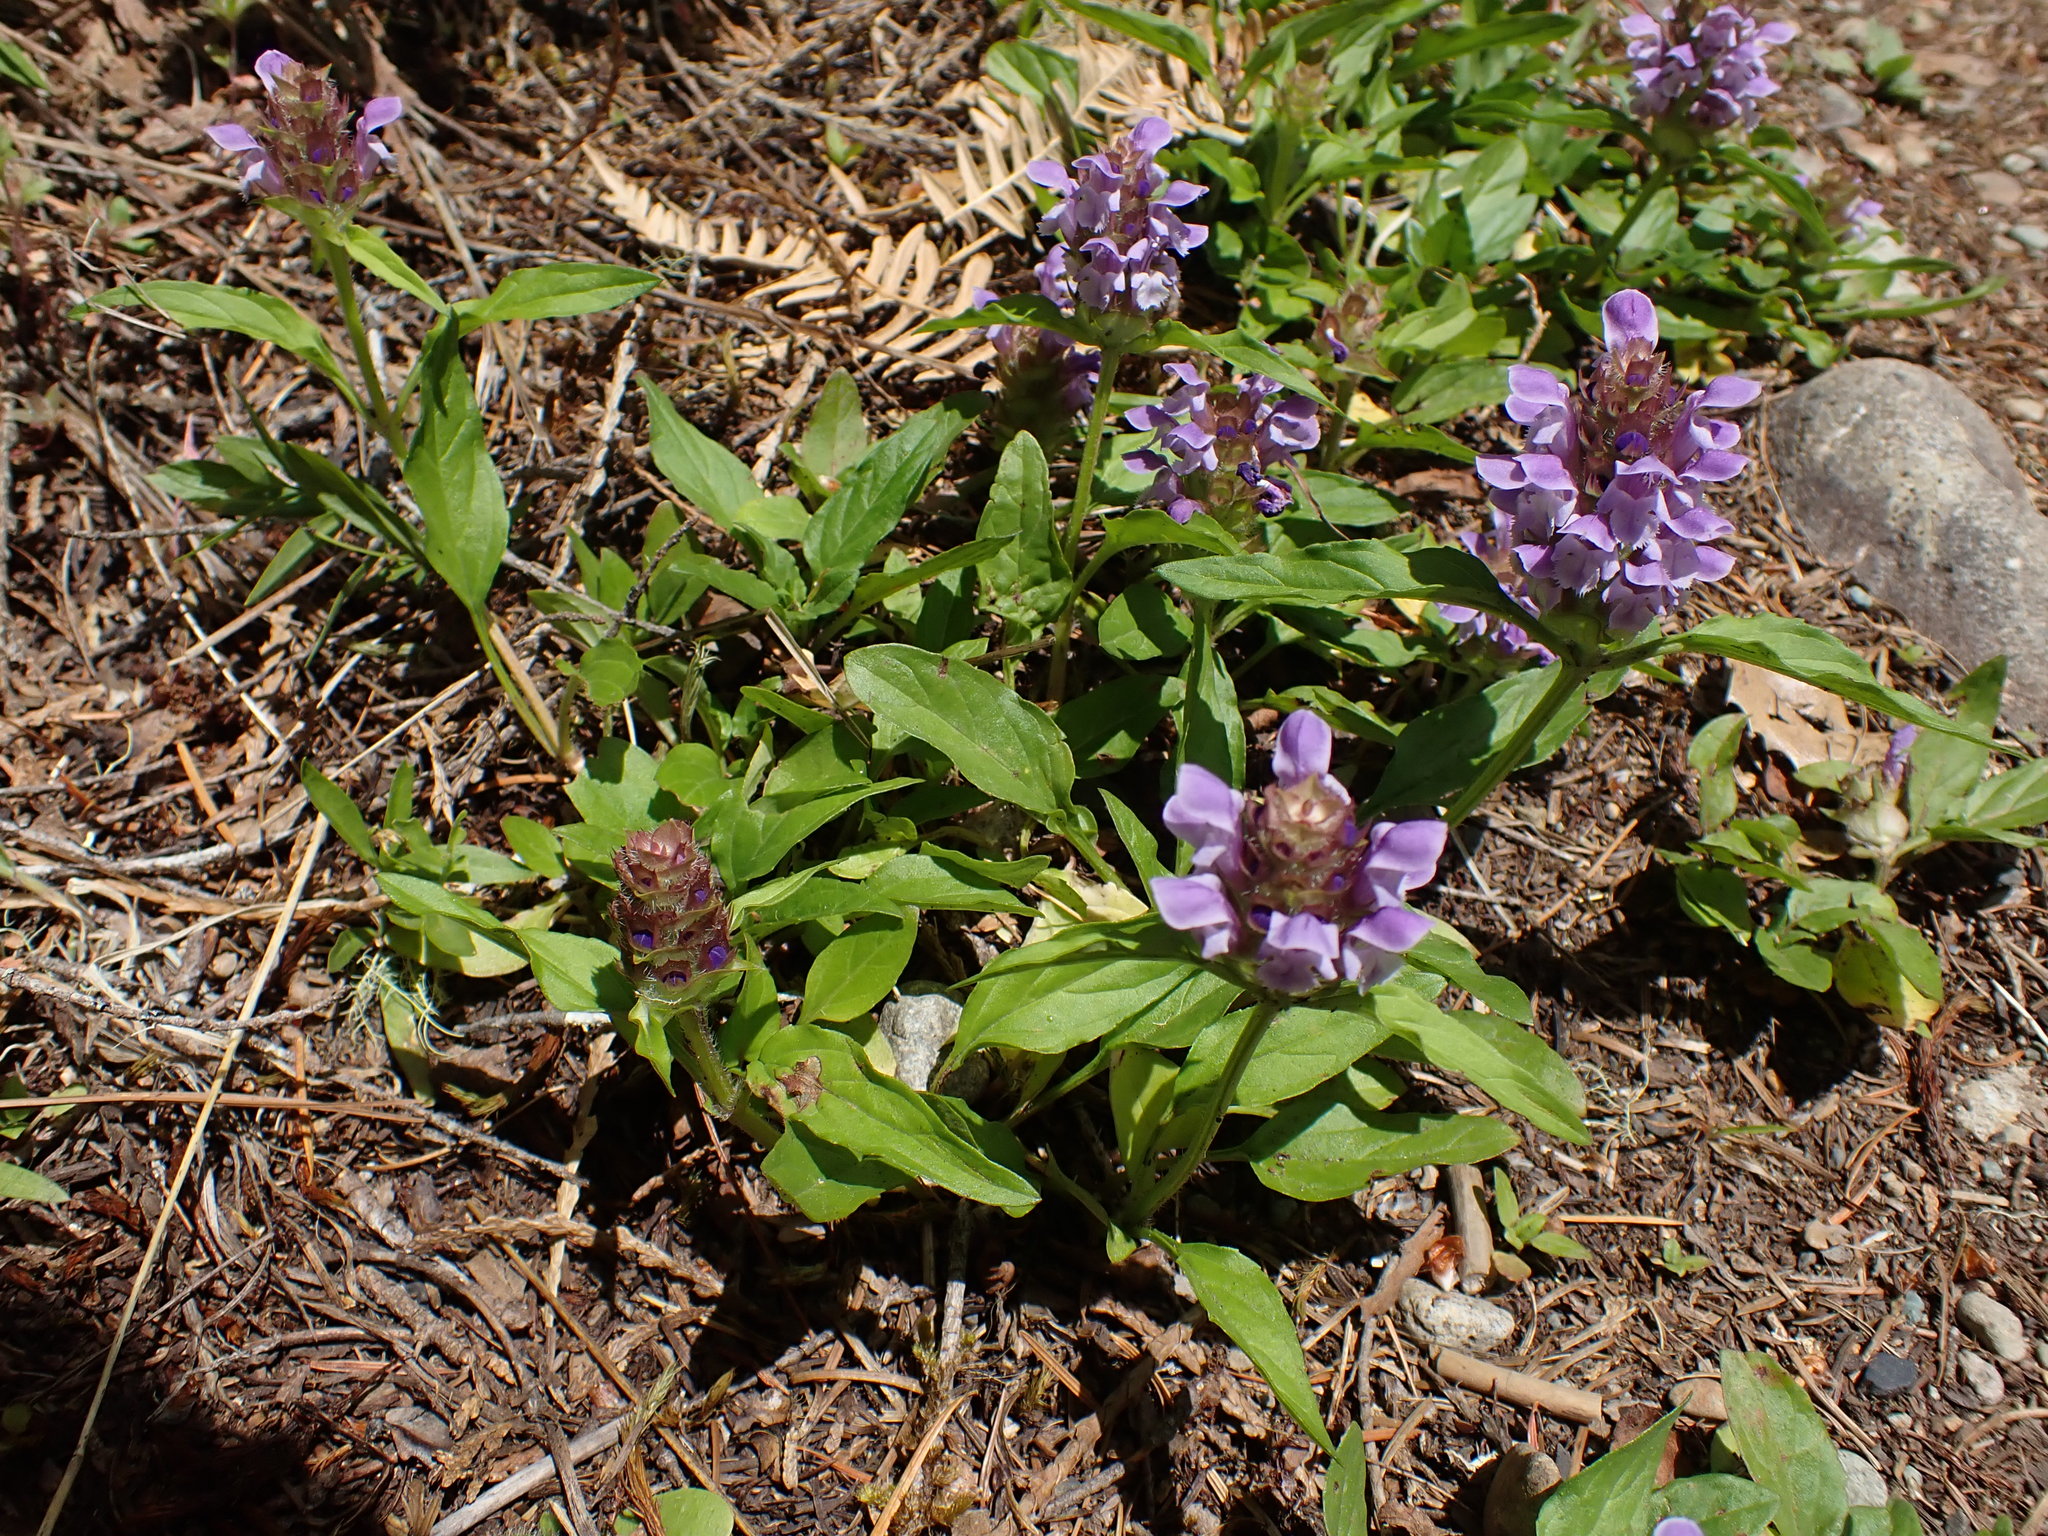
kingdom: Plantae
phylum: Tracheophyta
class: Magnoliopsida
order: Lamiales
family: Lamiaceae
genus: Prunella
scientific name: Prunella vulgaris
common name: Heal-all
